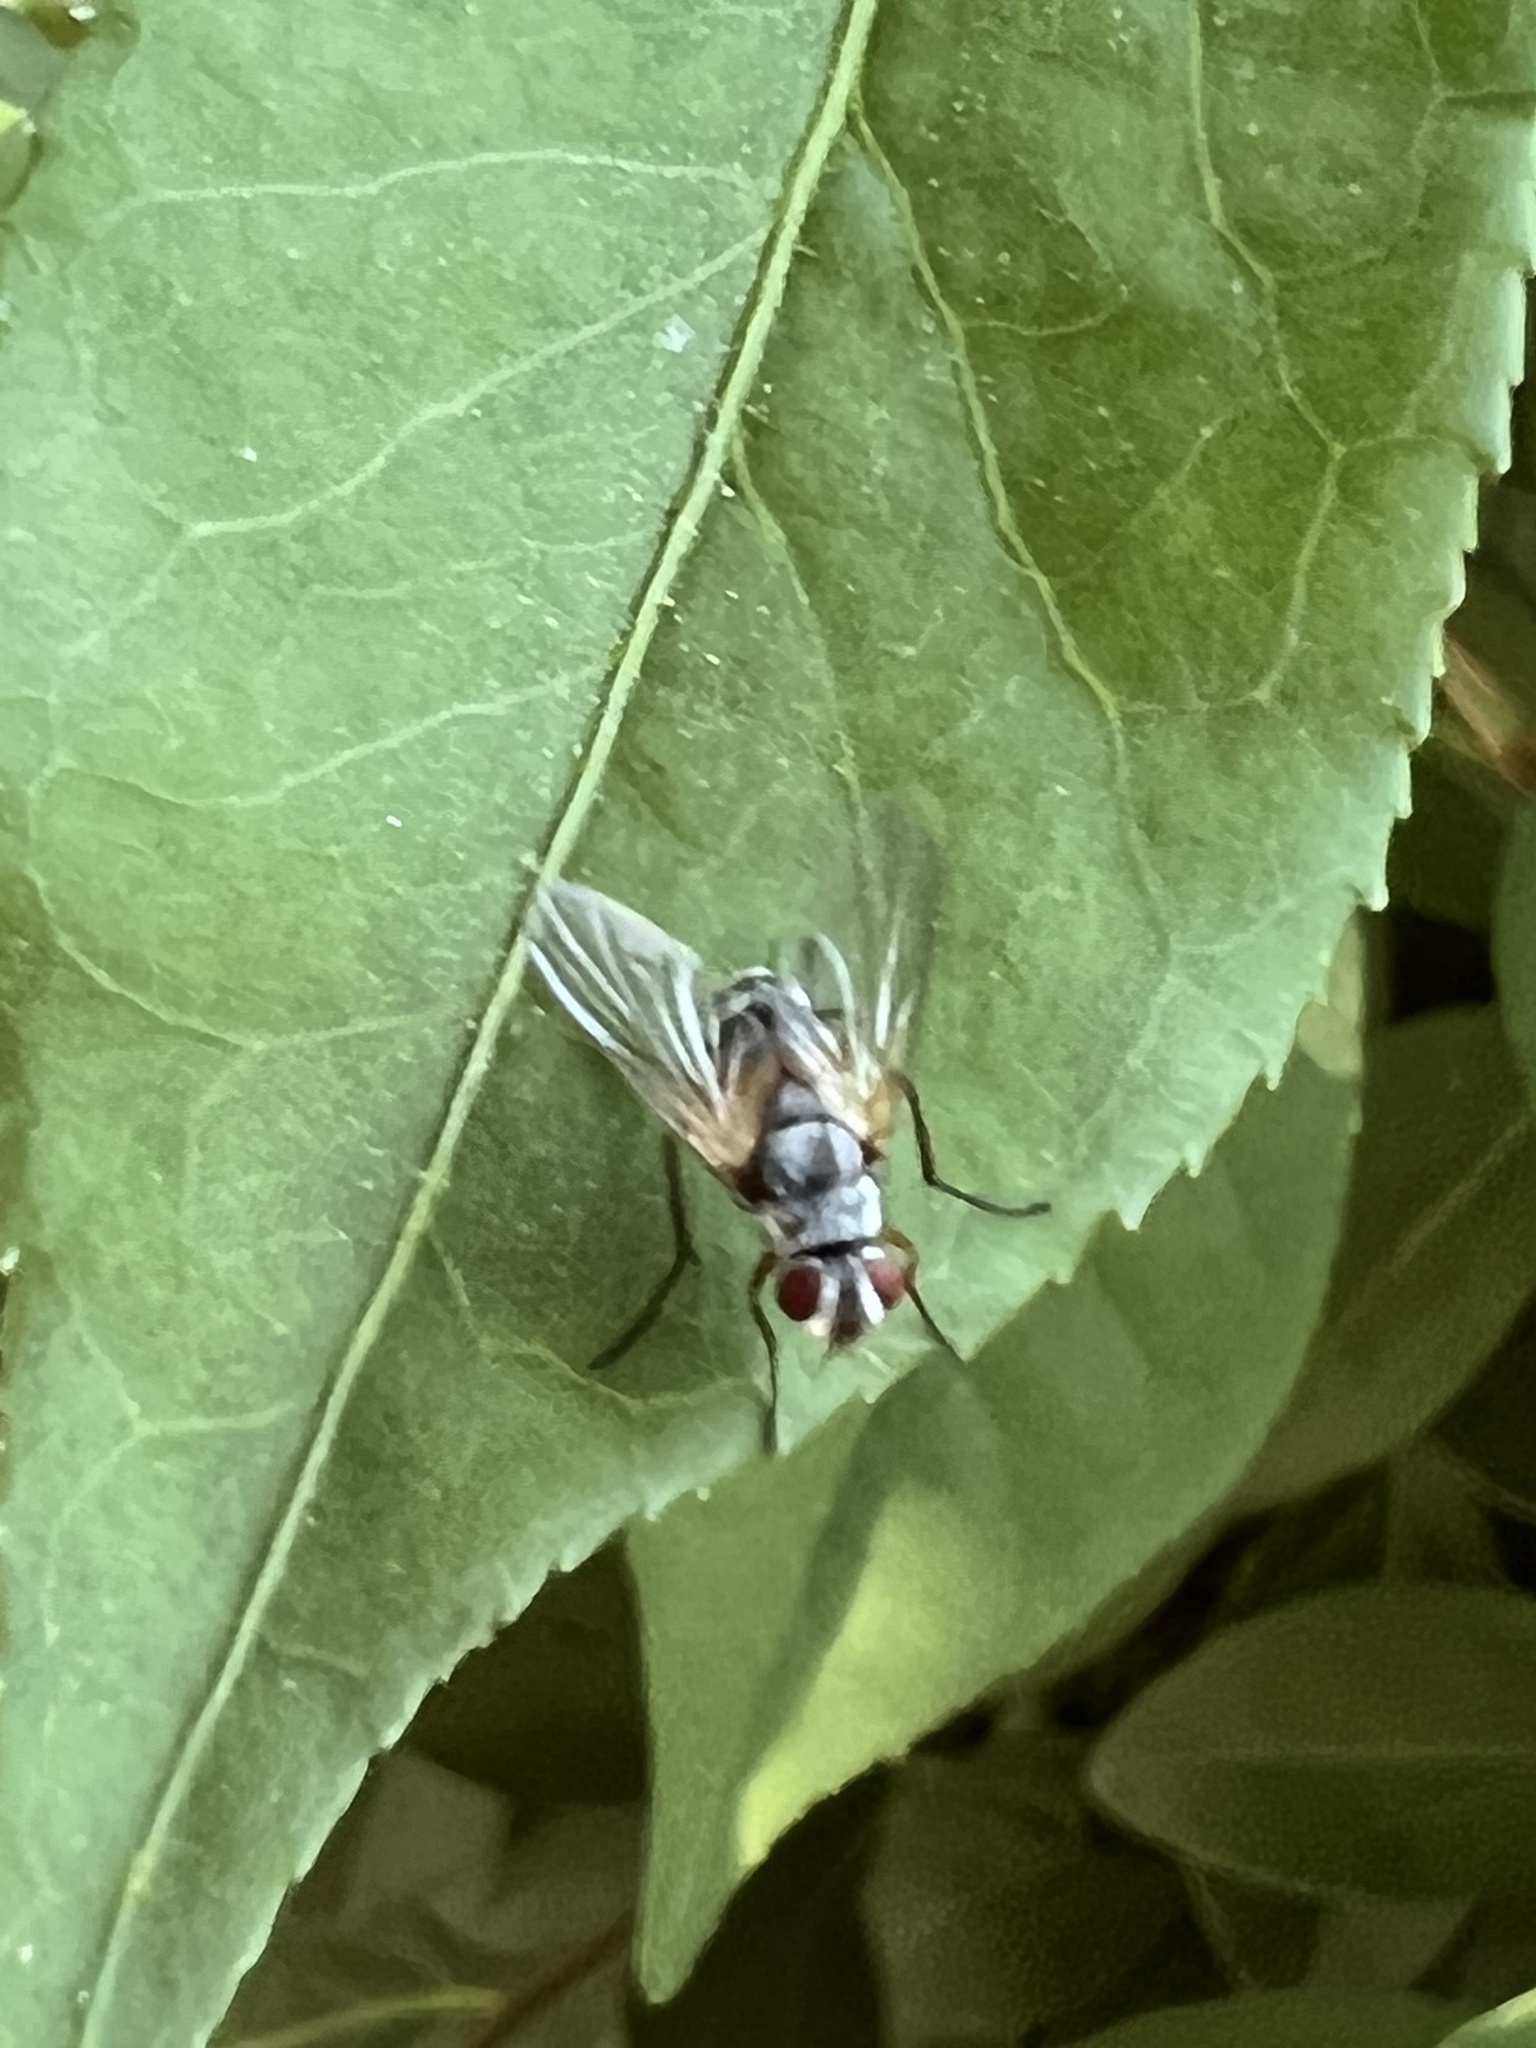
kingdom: Animalia
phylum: Arthropoda
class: Insecta
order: Diptera
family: Tachinidae
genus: Cholomyia
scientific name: Cholomyia inaequipes
